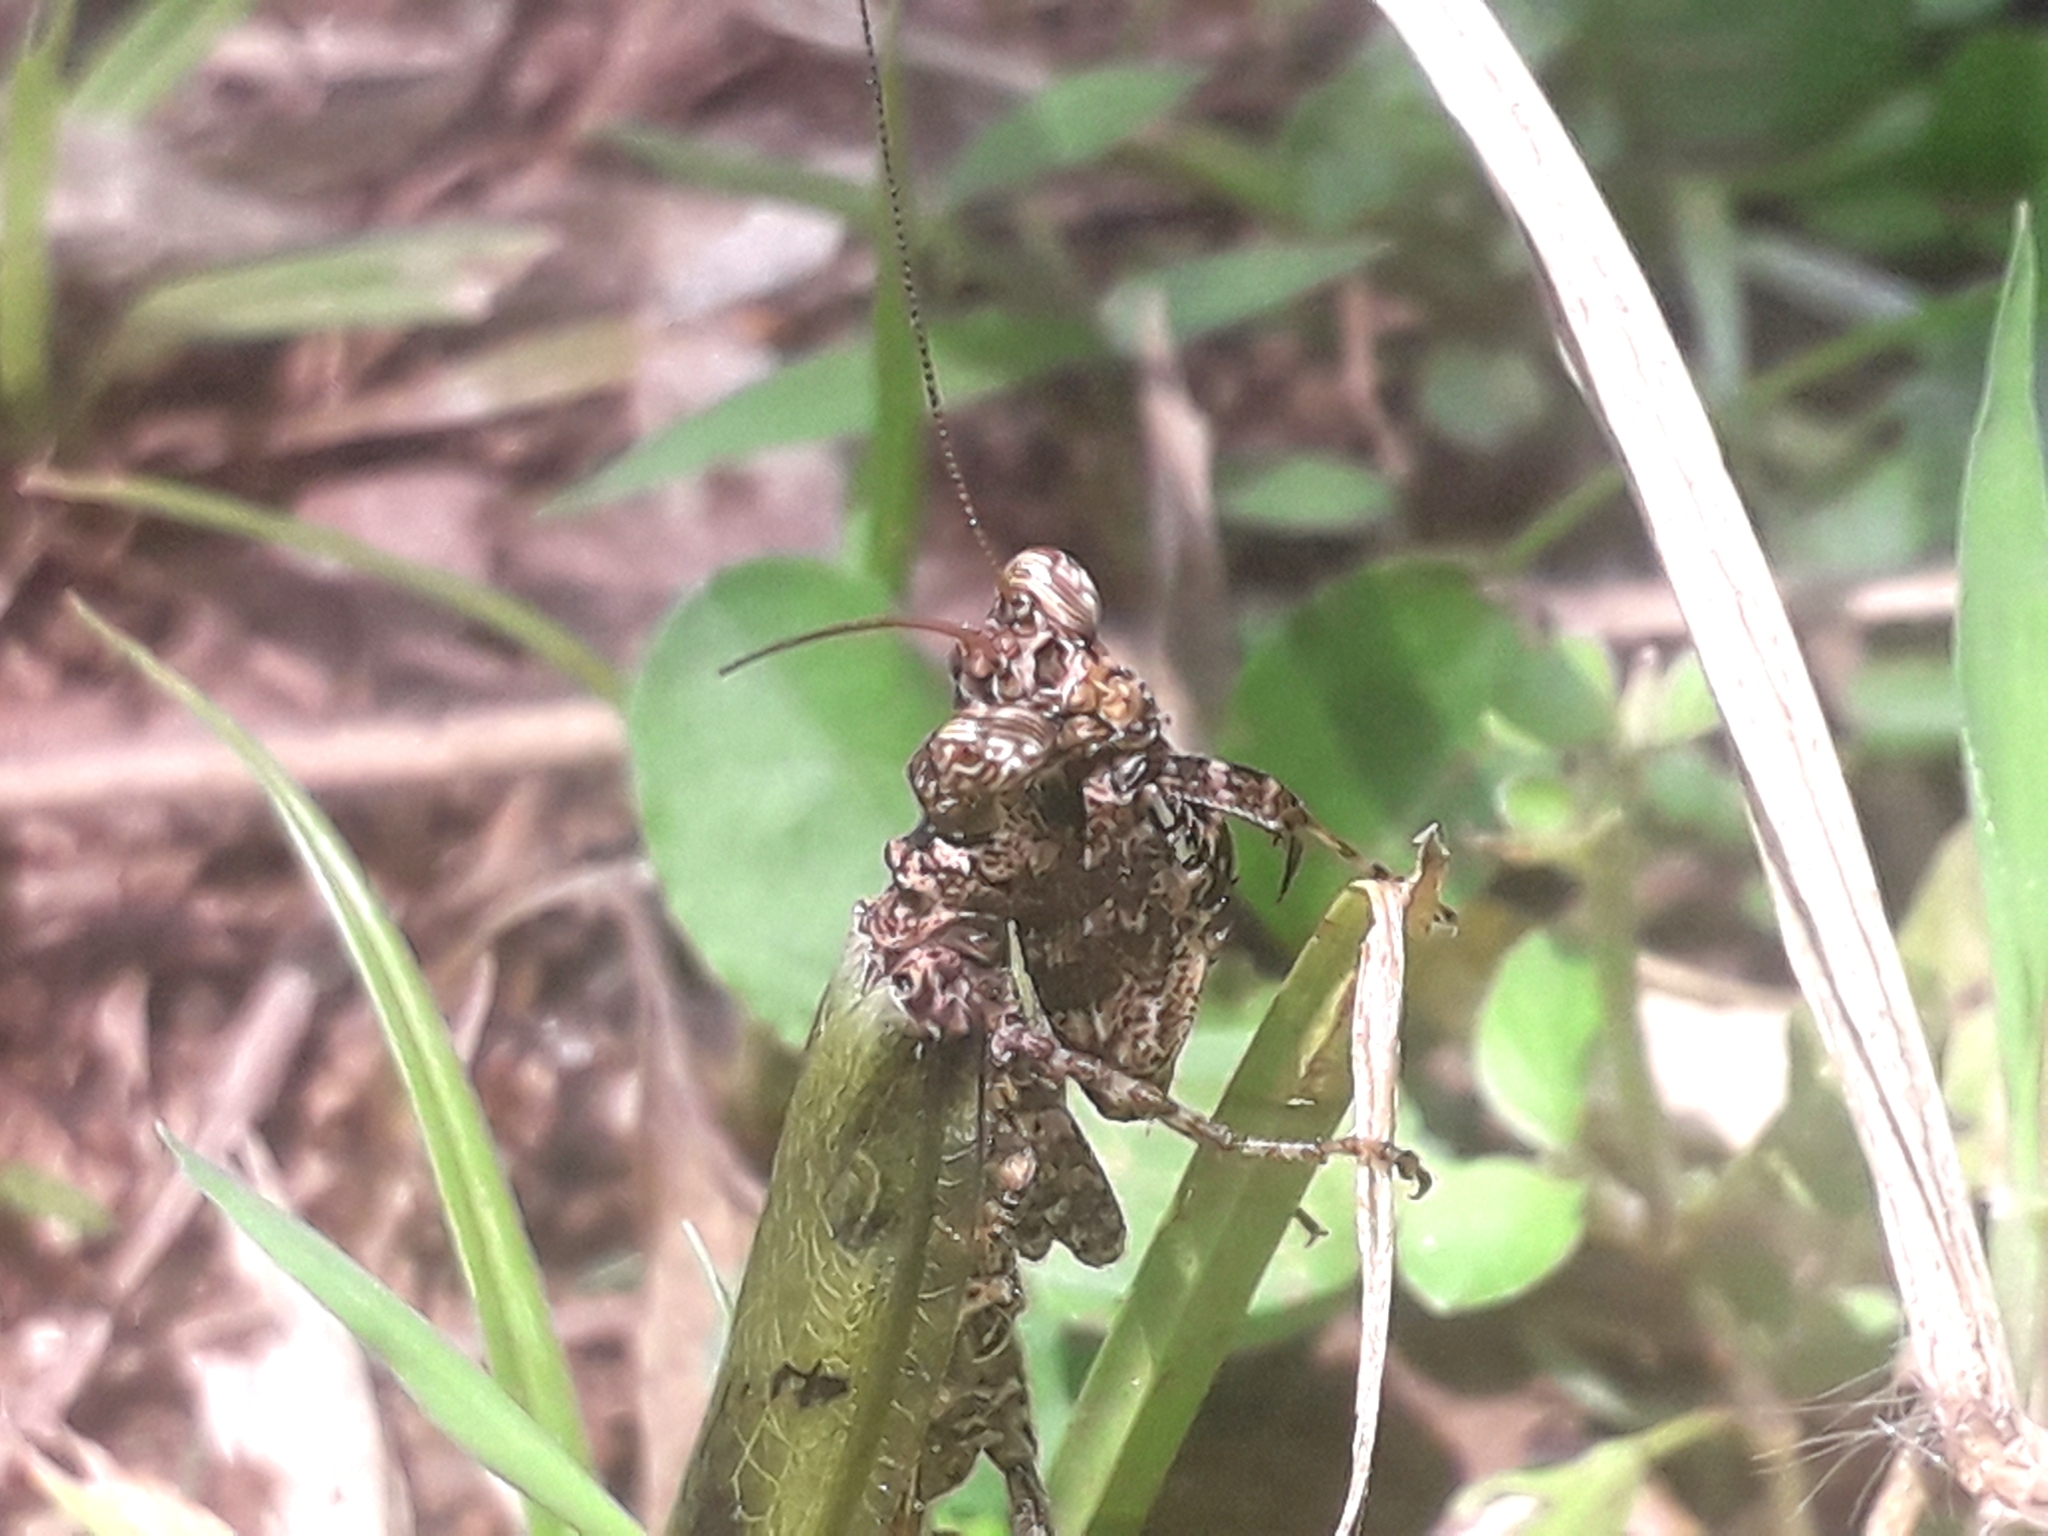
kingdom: Animalia
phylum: Arthropoda
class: Insecta
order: Mantodea
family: Hymenopodidae
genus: Panurgica
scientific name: Panurgica compressicollis
